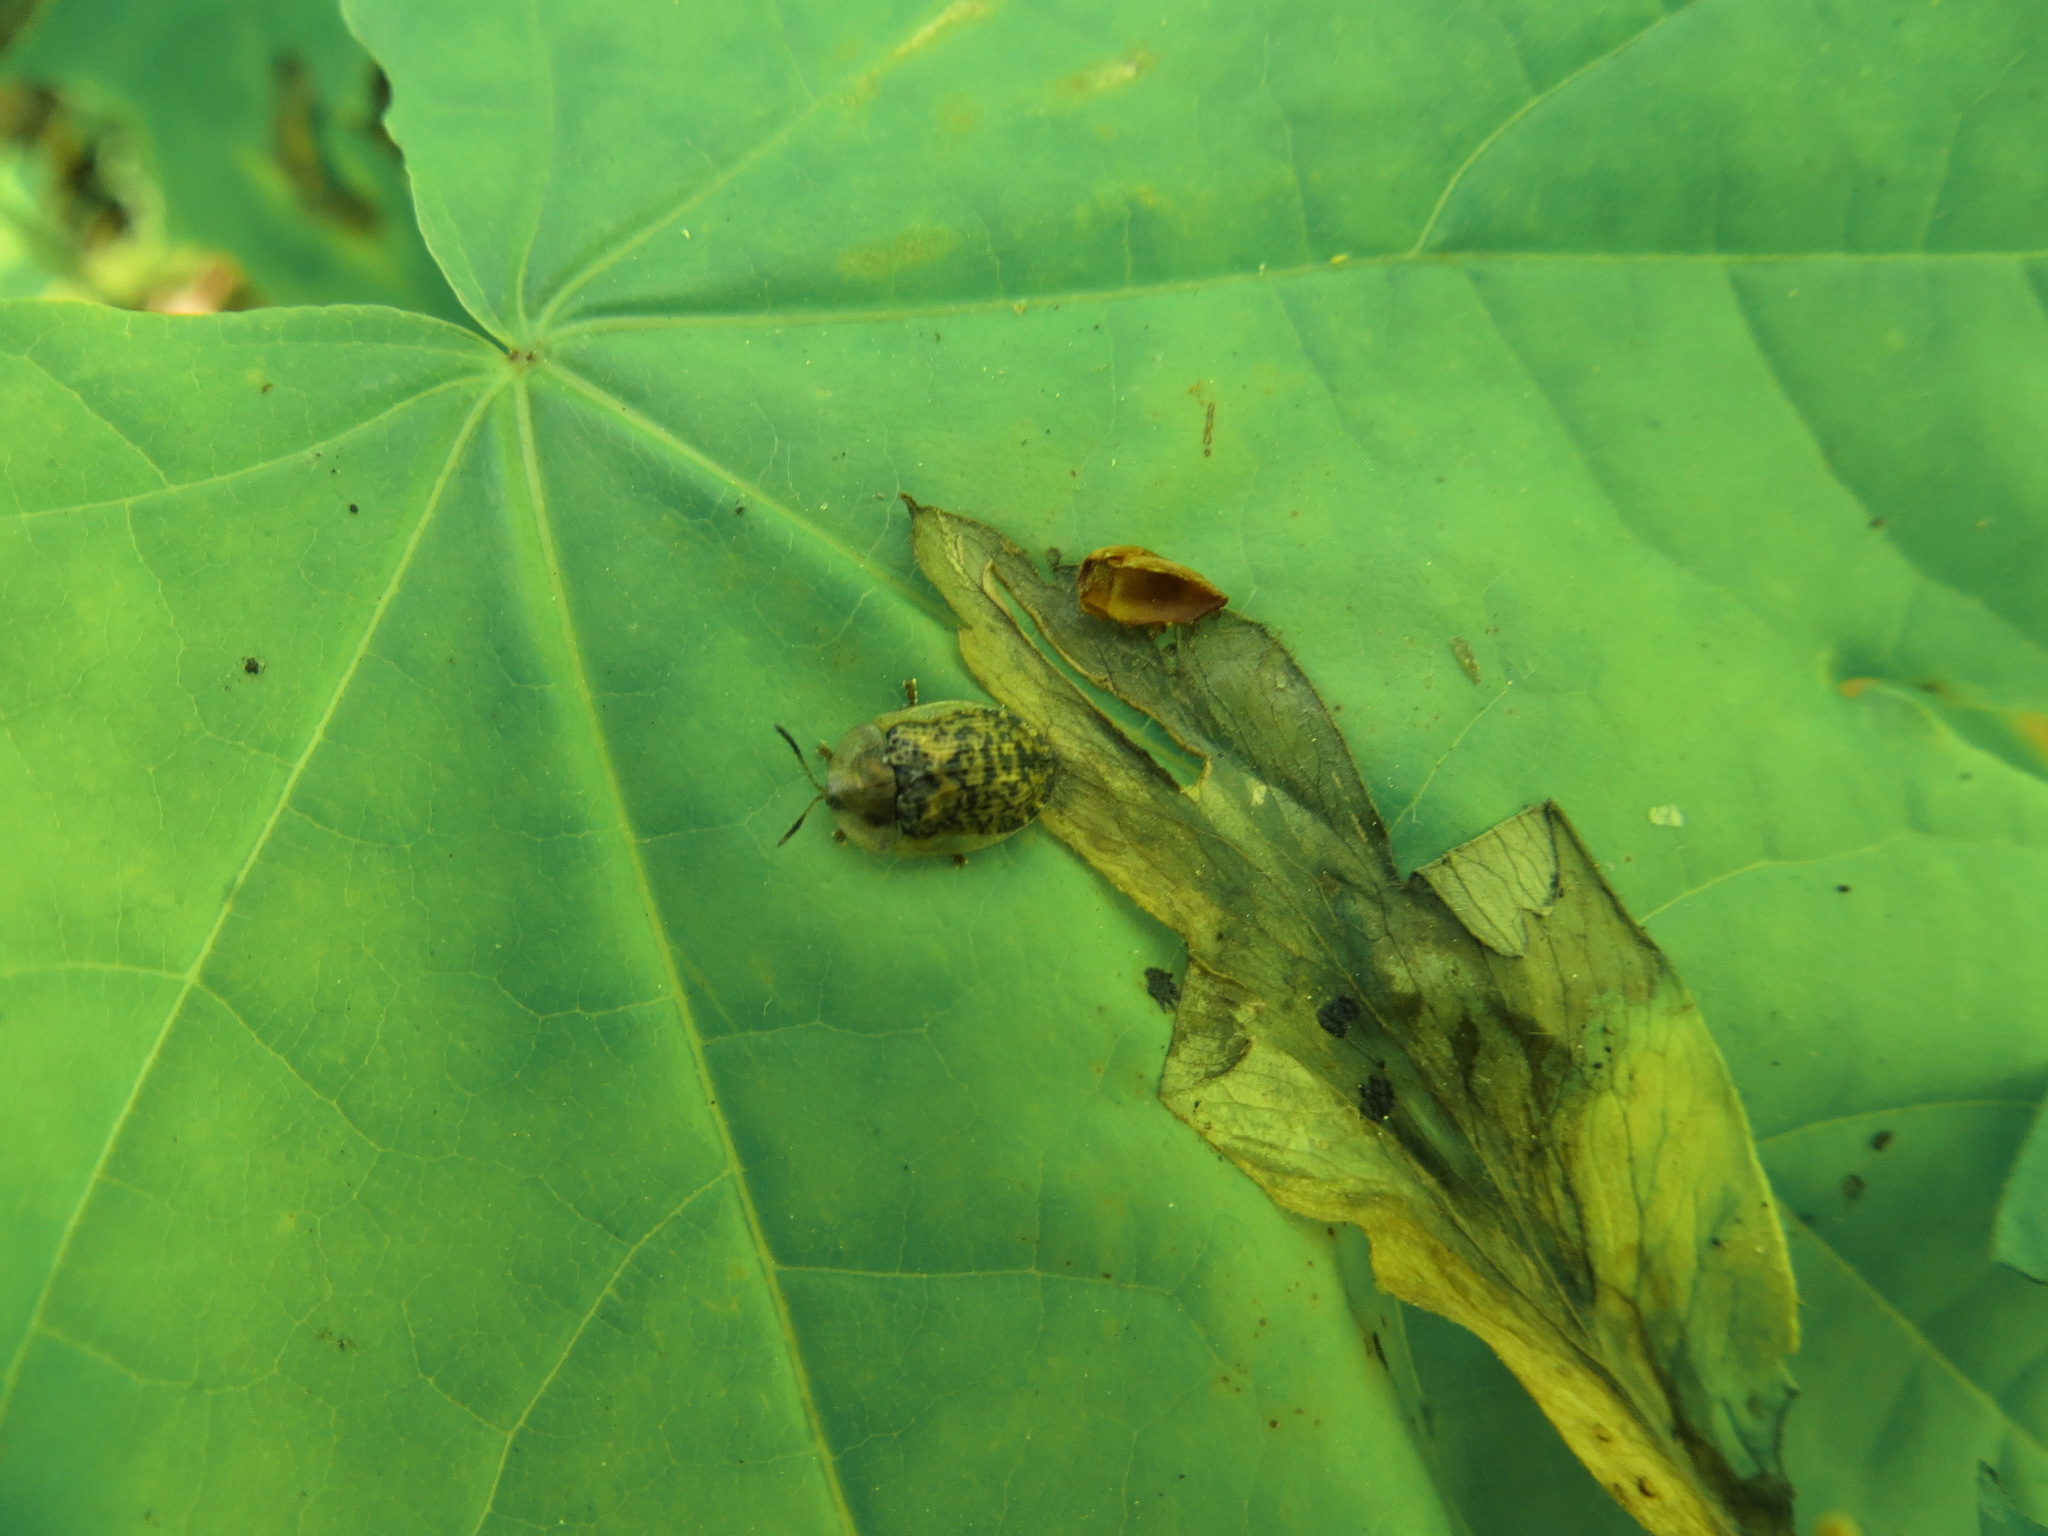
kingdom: Animalia
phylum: Arthropoda
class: Insecta
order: Coleoptera
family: Chrysomelidae
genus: Cassida
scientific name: Cassida nebulosa
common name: Beet tortoise beetle
